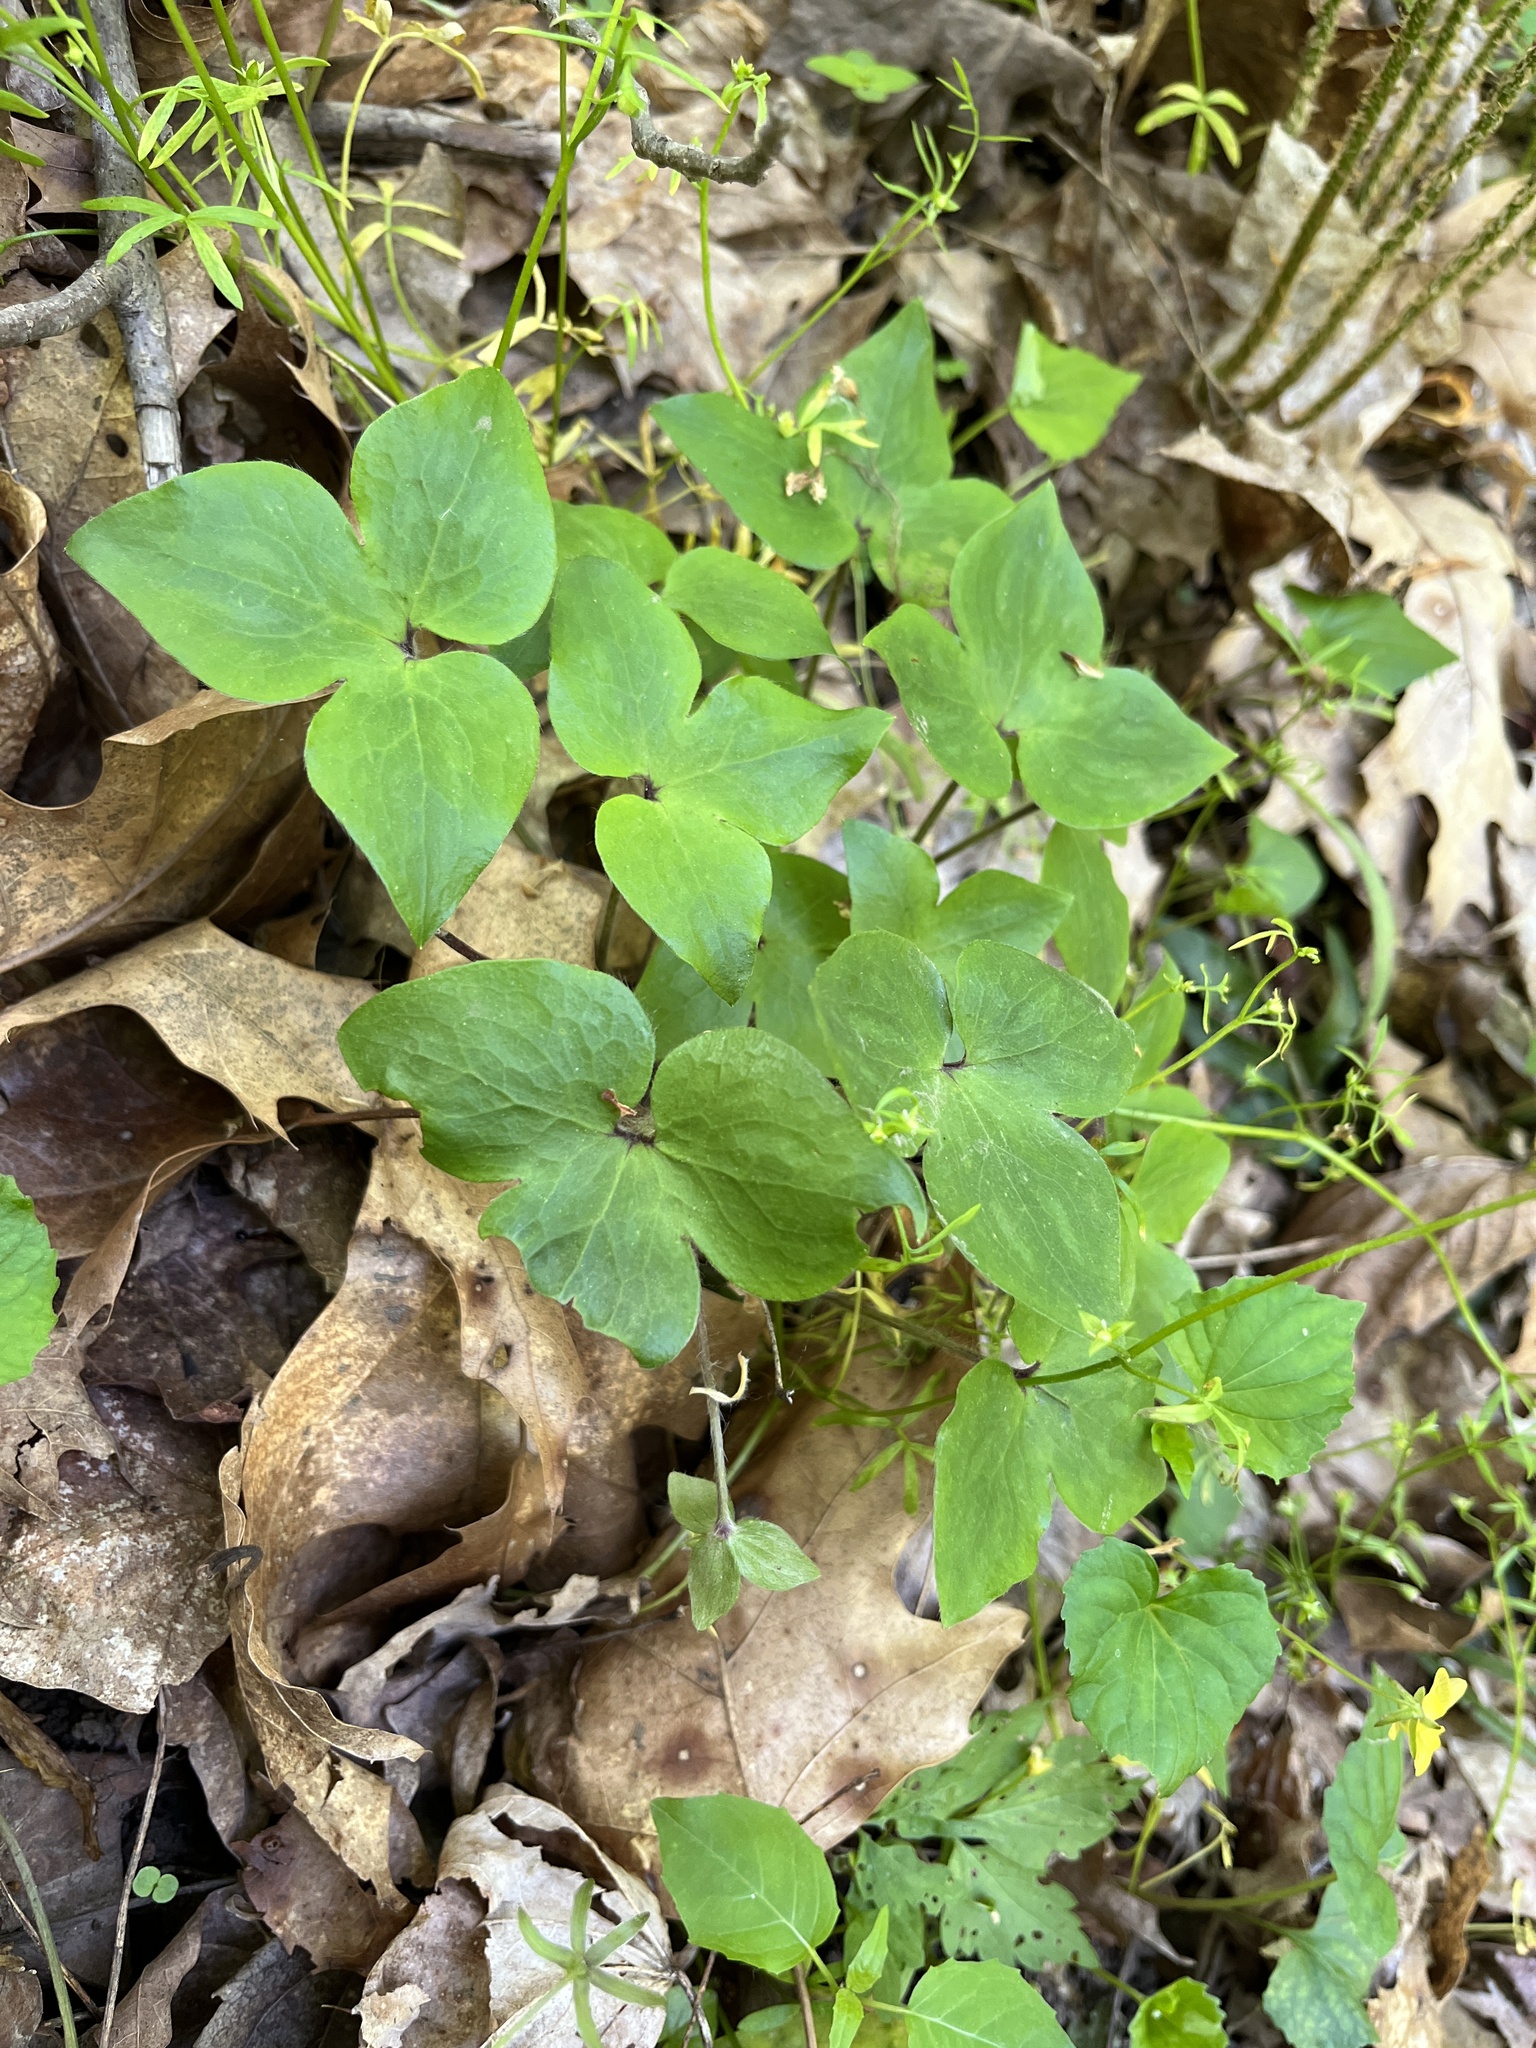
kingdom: Plantae
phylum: Tracheophyta
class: Magnoliopsida
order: Ranunculales
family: Ranunculaceae
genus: Hepatica
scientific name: Hepatica acutiloba
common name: Sharp-lobed hepatica
